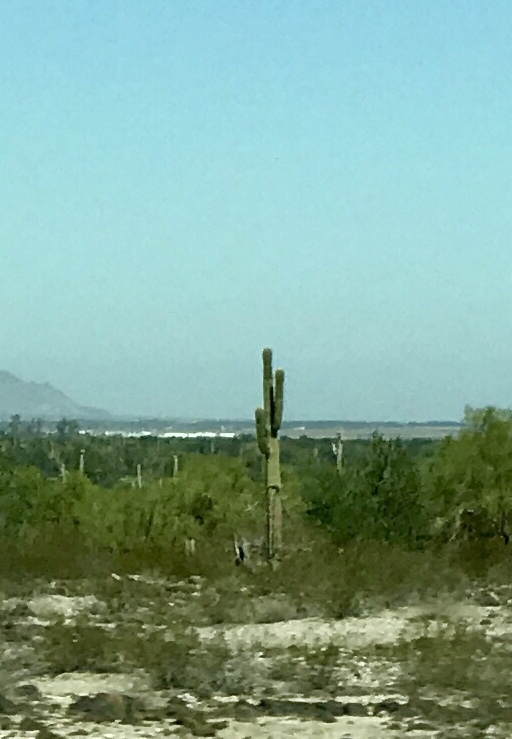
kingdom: Plantae
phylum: Tracheophyta
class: Magnoliopsida
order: Caryophyllales
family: Cactaceae
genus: Carnegiea
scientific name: Carnegiea gigantea
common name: Saguaro
